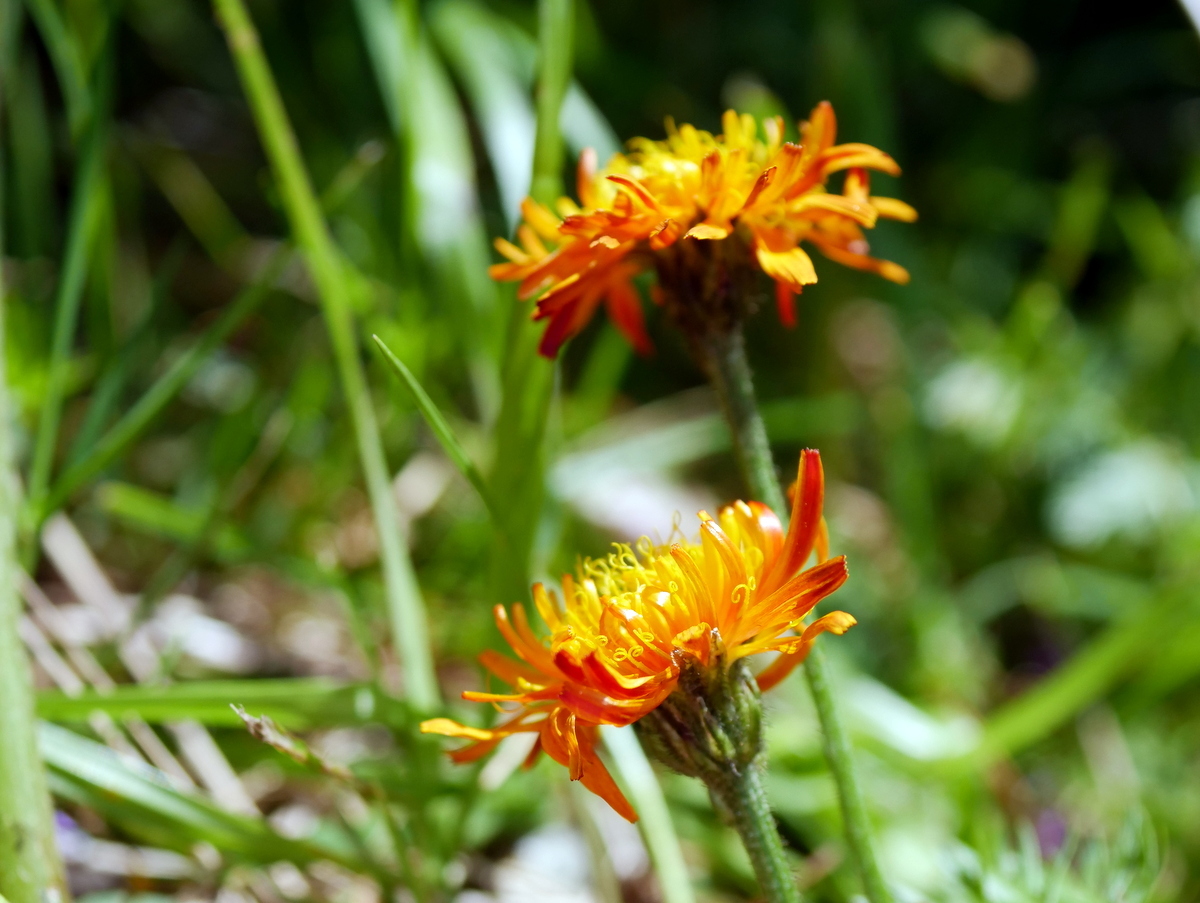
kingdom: Plantae
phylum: Tracheophyta
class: Magnoliopsida
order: Asterales
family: Asteraceae
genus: Crepis
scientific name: Crepis aurea
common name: Golden hawk's-beard
